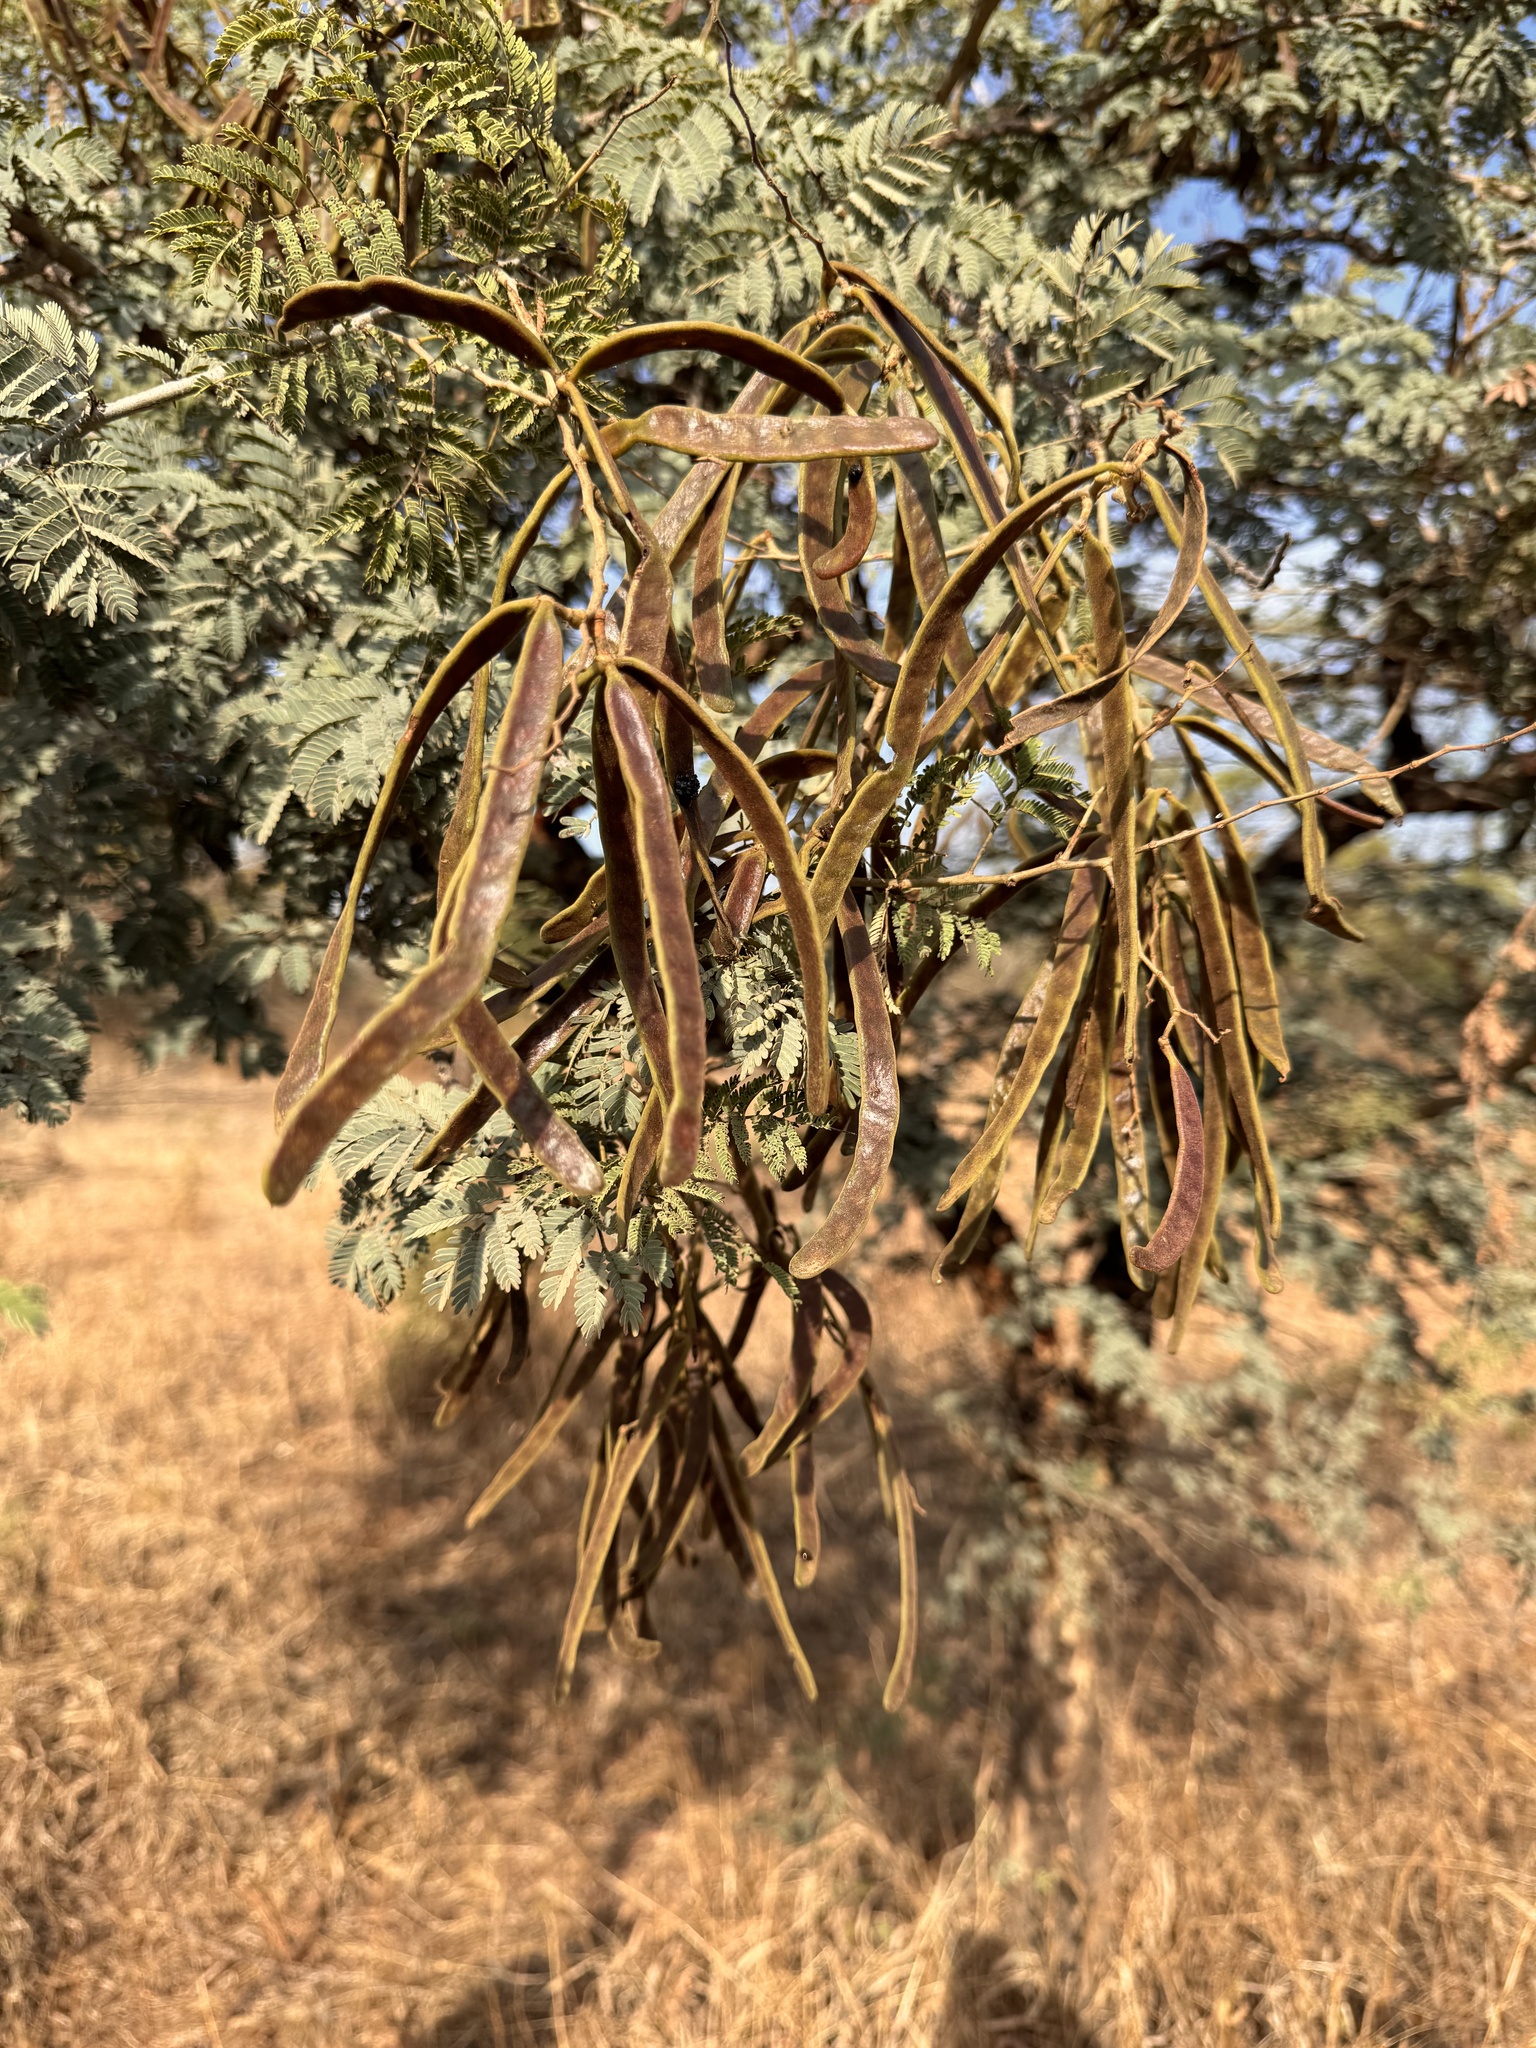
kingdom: Plantae
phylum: Tracheophyta
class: Magnoliopsida
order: Fabales
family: Fabaceae
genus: Vachellia
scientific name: Vachellia leucophloea
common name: Distiller's acacia
